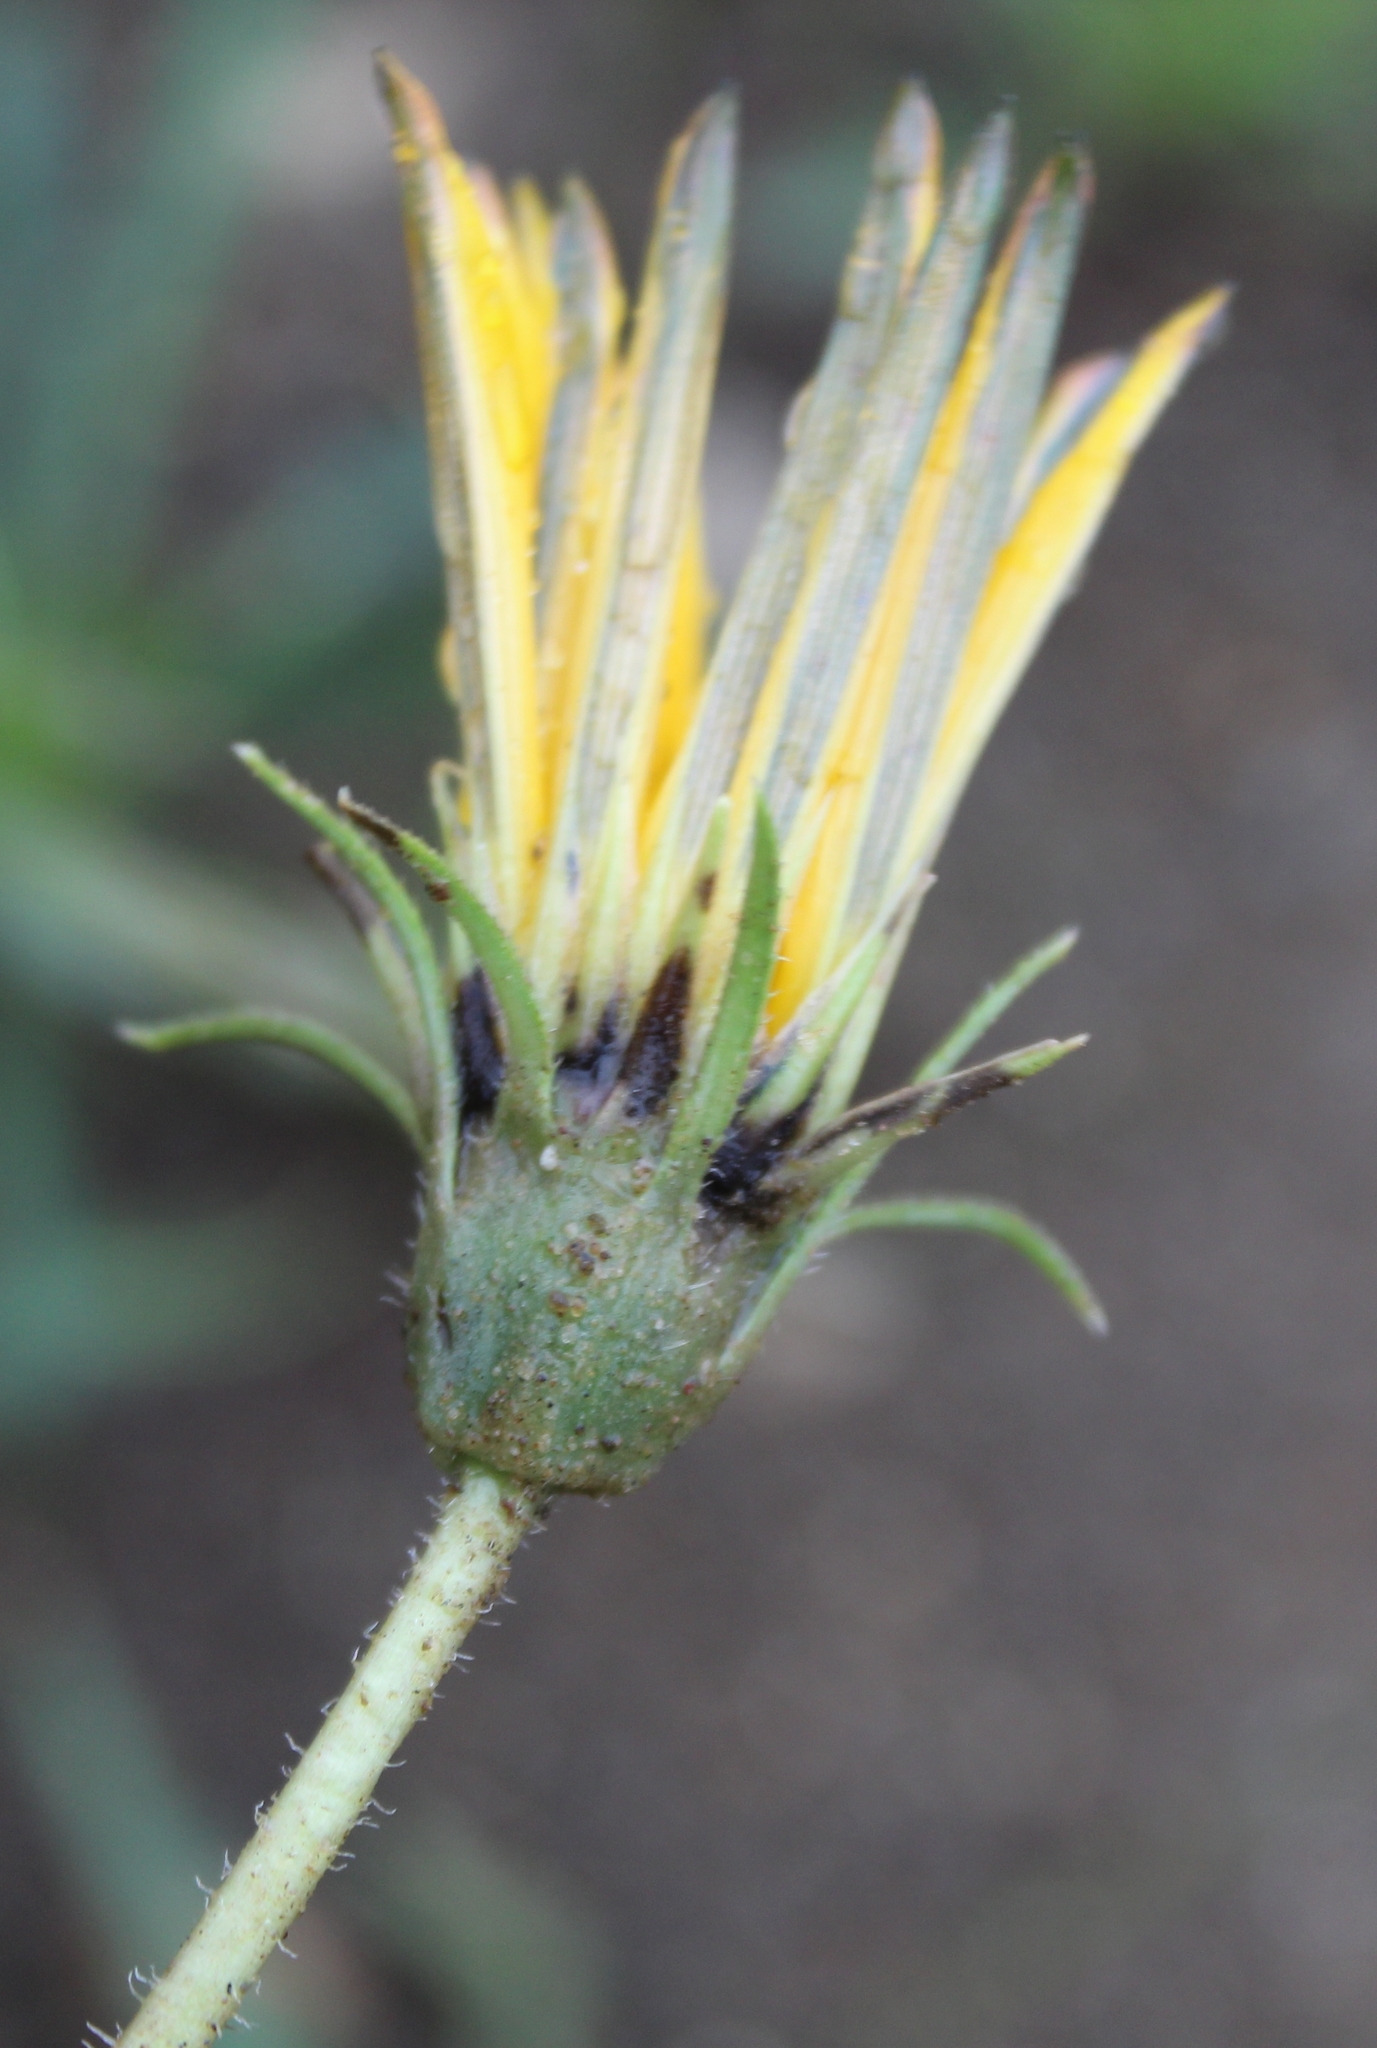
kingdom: Plantae
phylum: Tracheophyta
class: Magnoliopsida
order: Asterales
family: Asteraceae
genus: Gazania
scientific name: Gazania linearis
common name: Treasureflower
